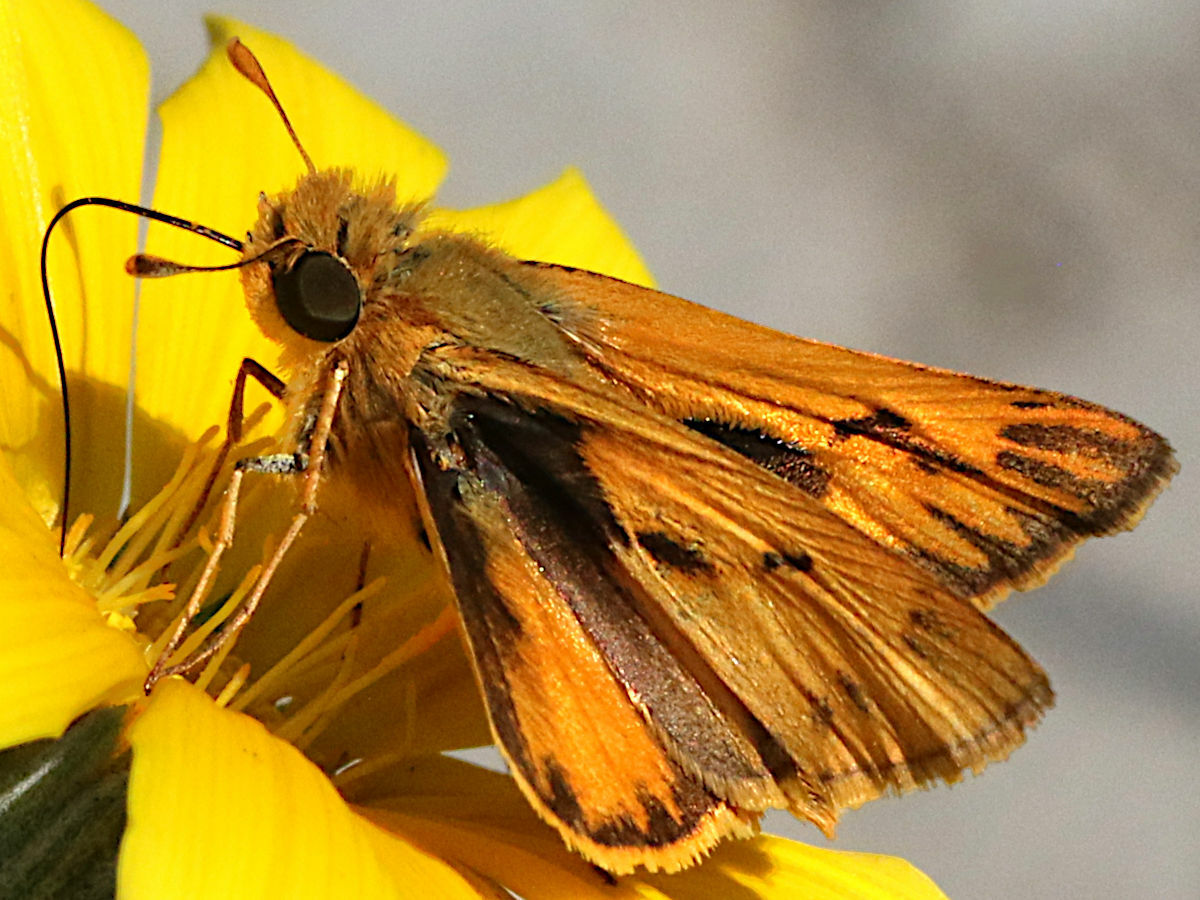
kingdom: Animalia
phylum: Arthropoda
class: Insecta
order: Lepidoptera
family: Hesperiidae
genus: Hylephila
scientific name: Hylephila phyleus
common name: Fiery skipper
